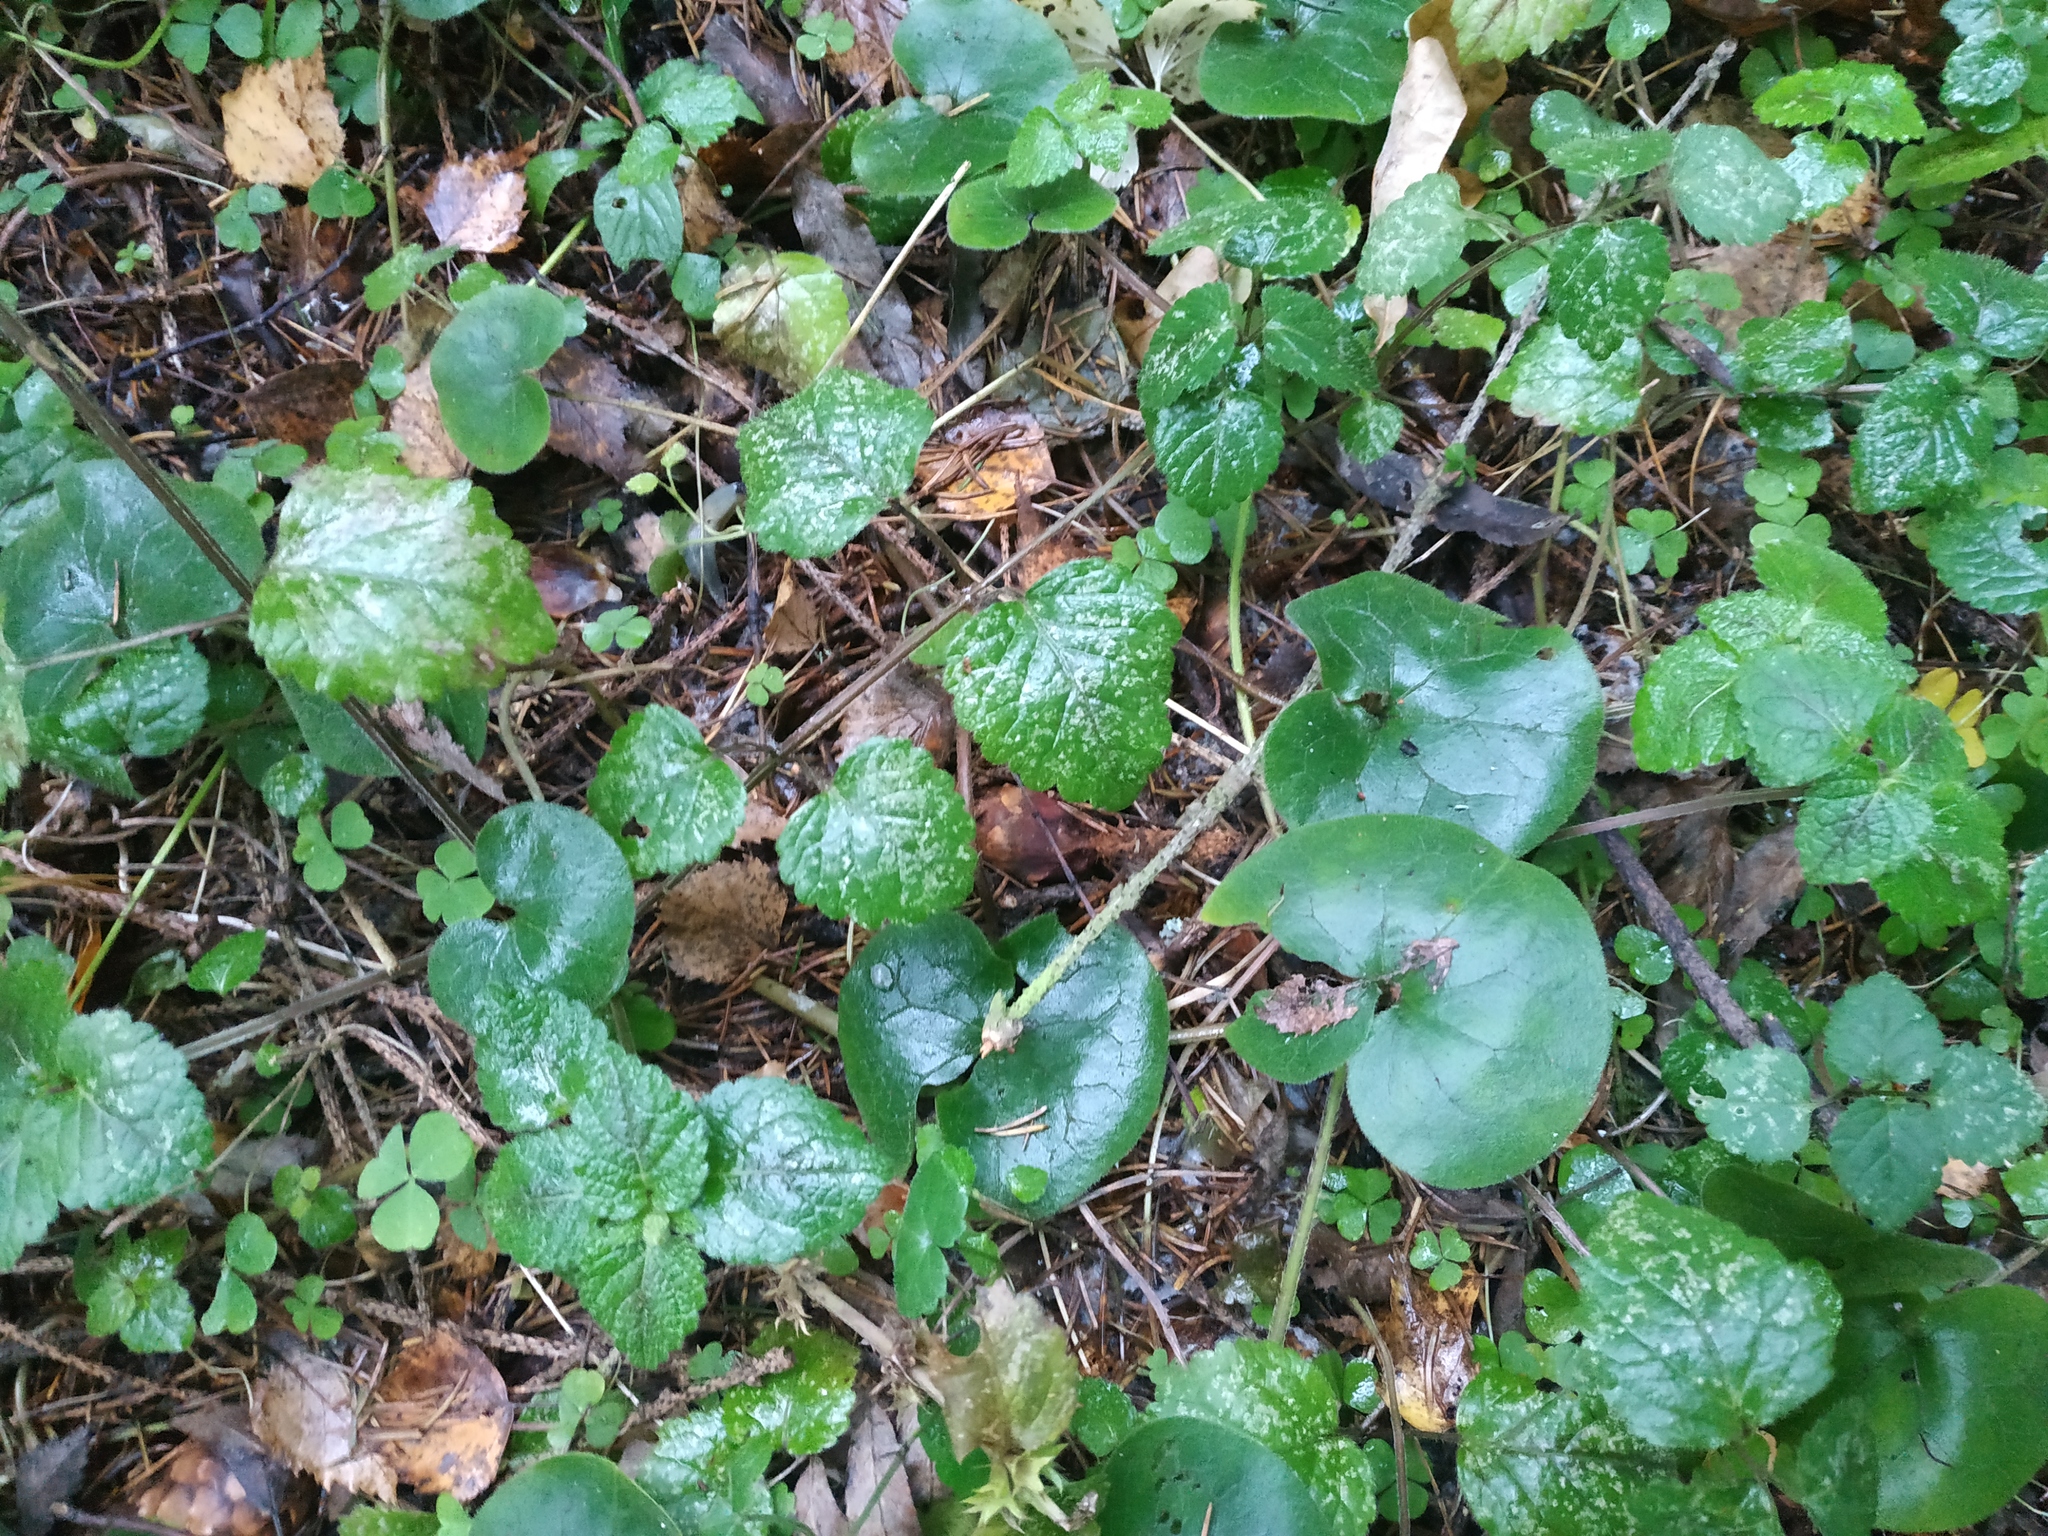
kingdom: Plantae
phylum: Tracheophyta
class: Magnoliopsida
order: Piperales
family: Aristolochiaceae
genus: Asarum
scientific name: Asarum europaeum
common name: Asarabacca
